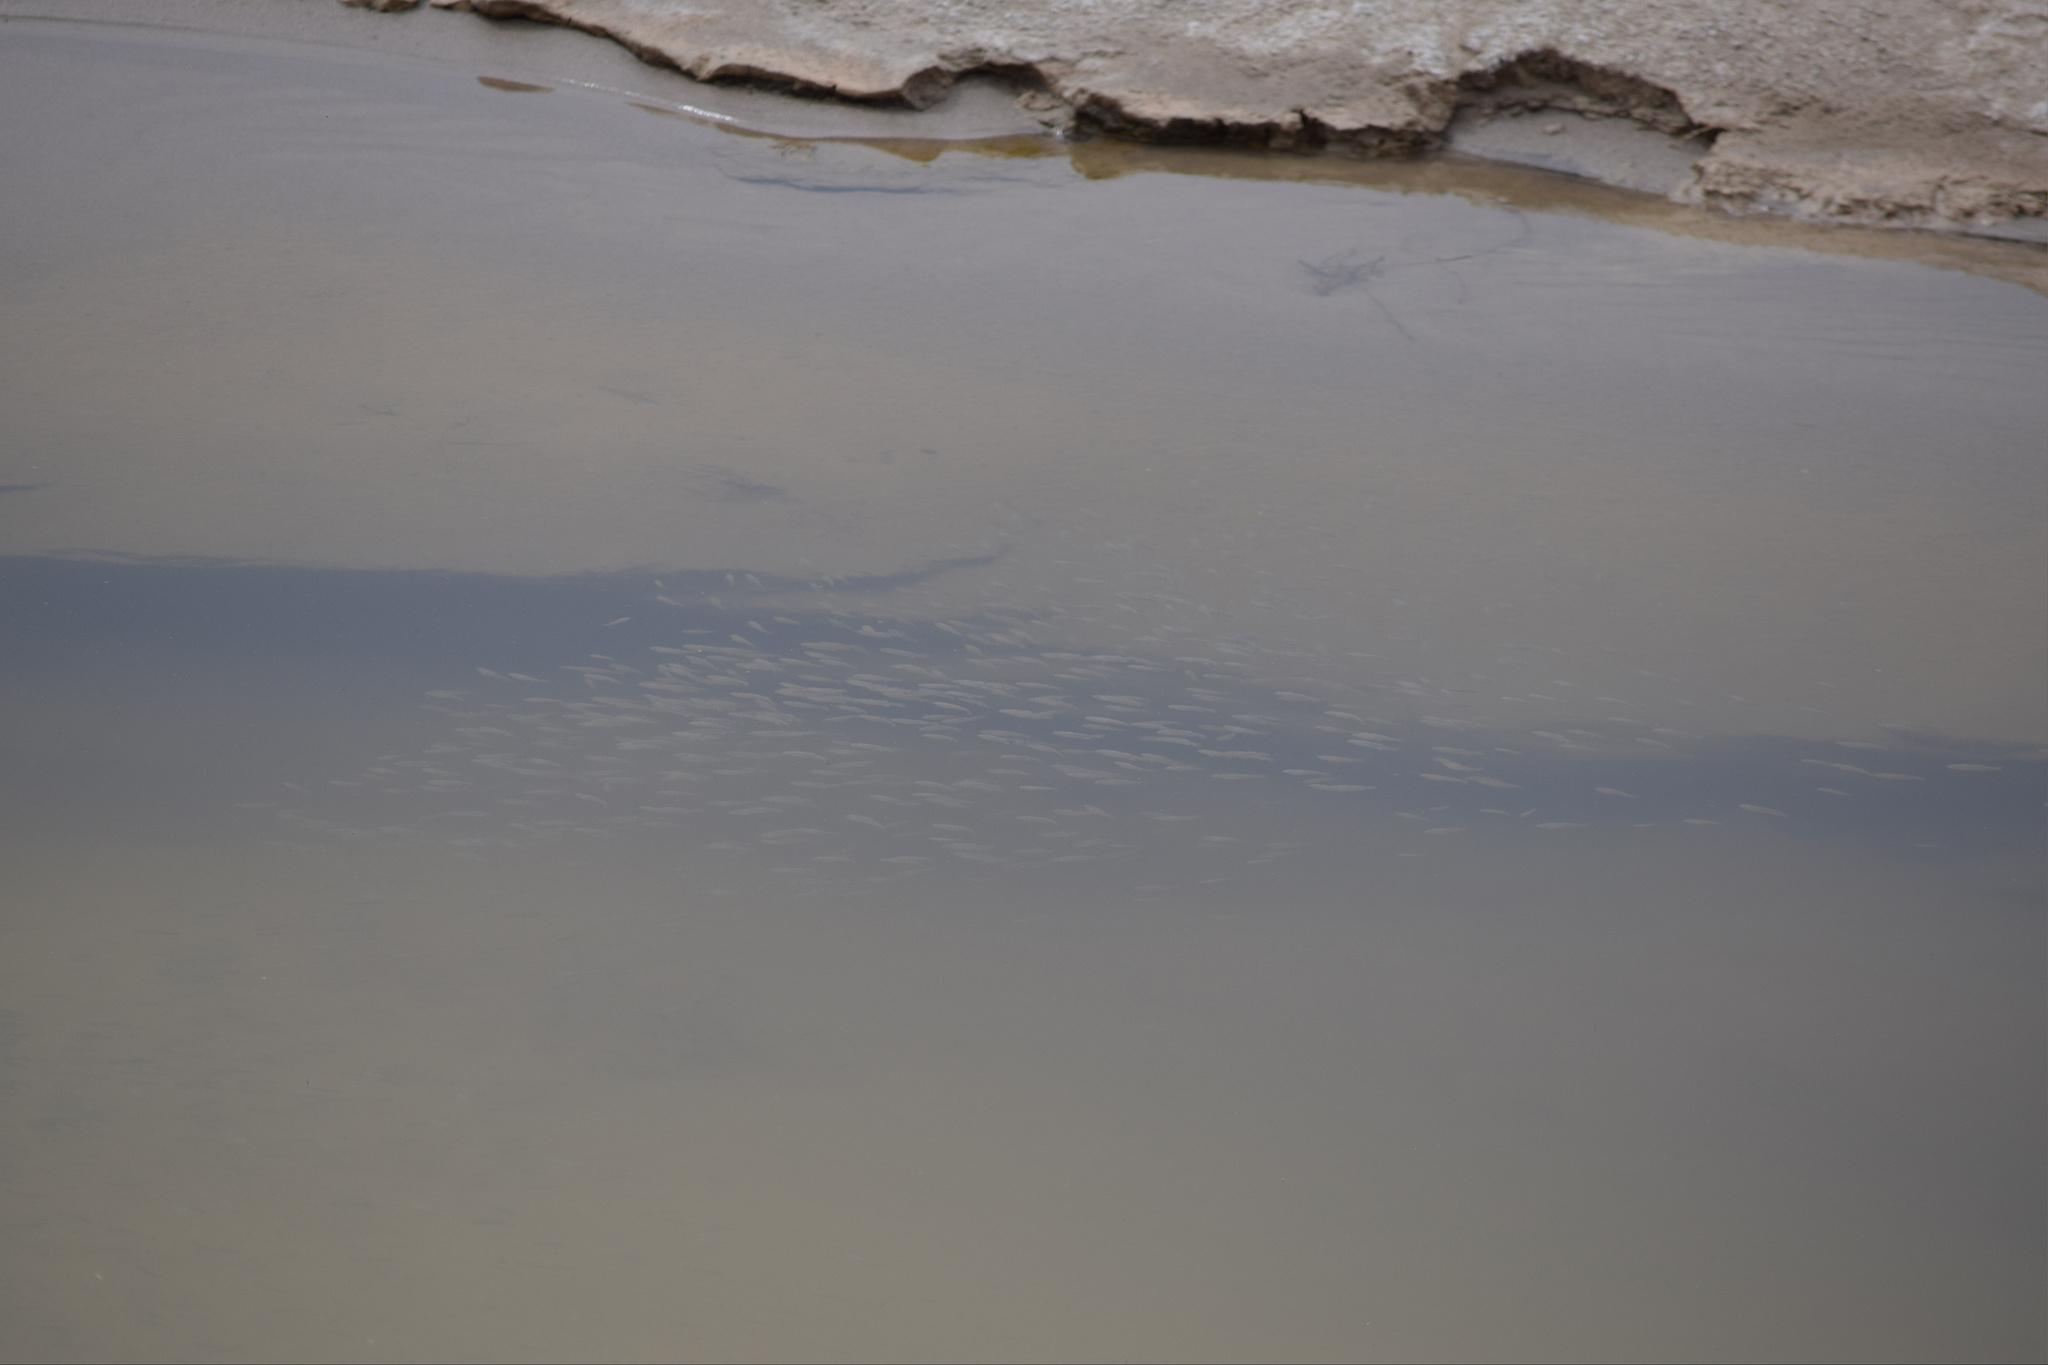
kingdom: Animalia
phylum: Chordata
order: Cyprinodontiformes
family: Cyprinodontidae
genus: Cyprinodon
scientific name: Cyprinodon salinus
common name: Cottonball marsh pupfish
